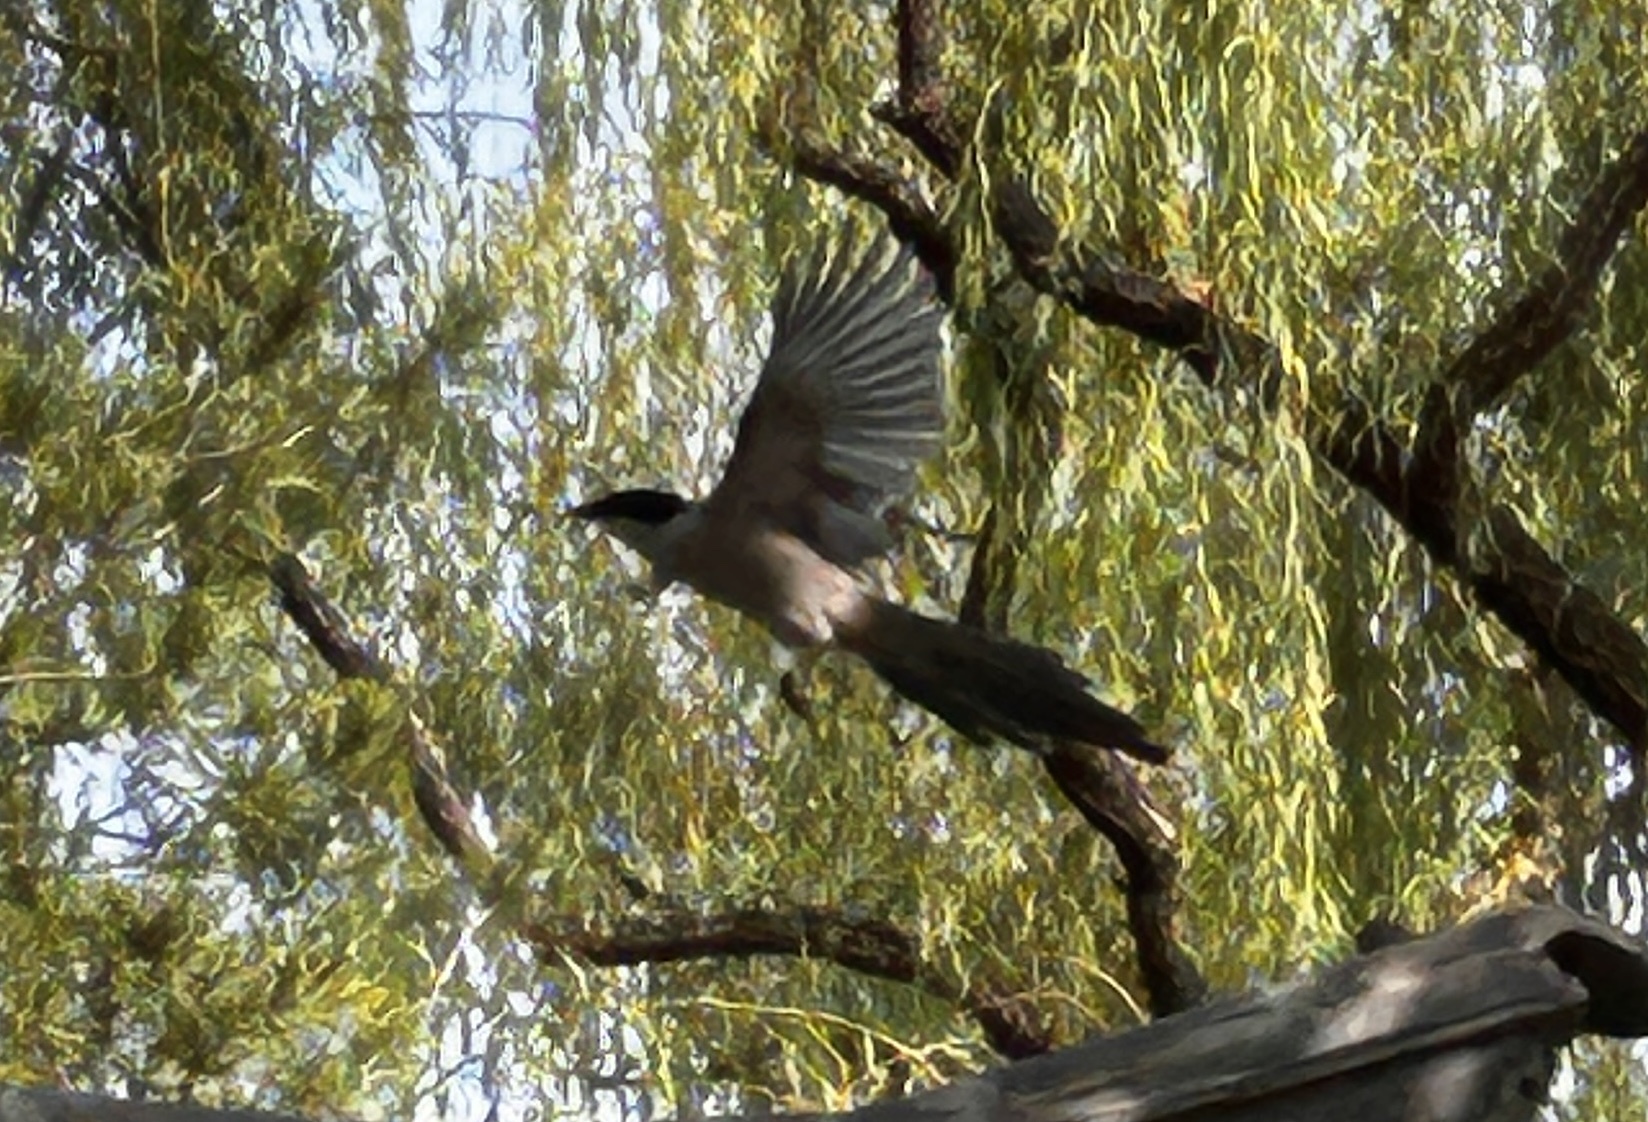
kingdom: Animalia
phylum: Chordata
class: Aves
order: Passeriformes
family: Corvidae
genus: Cyanopica
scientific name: Cyanopica cyanus
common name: Azure-winged magpie
